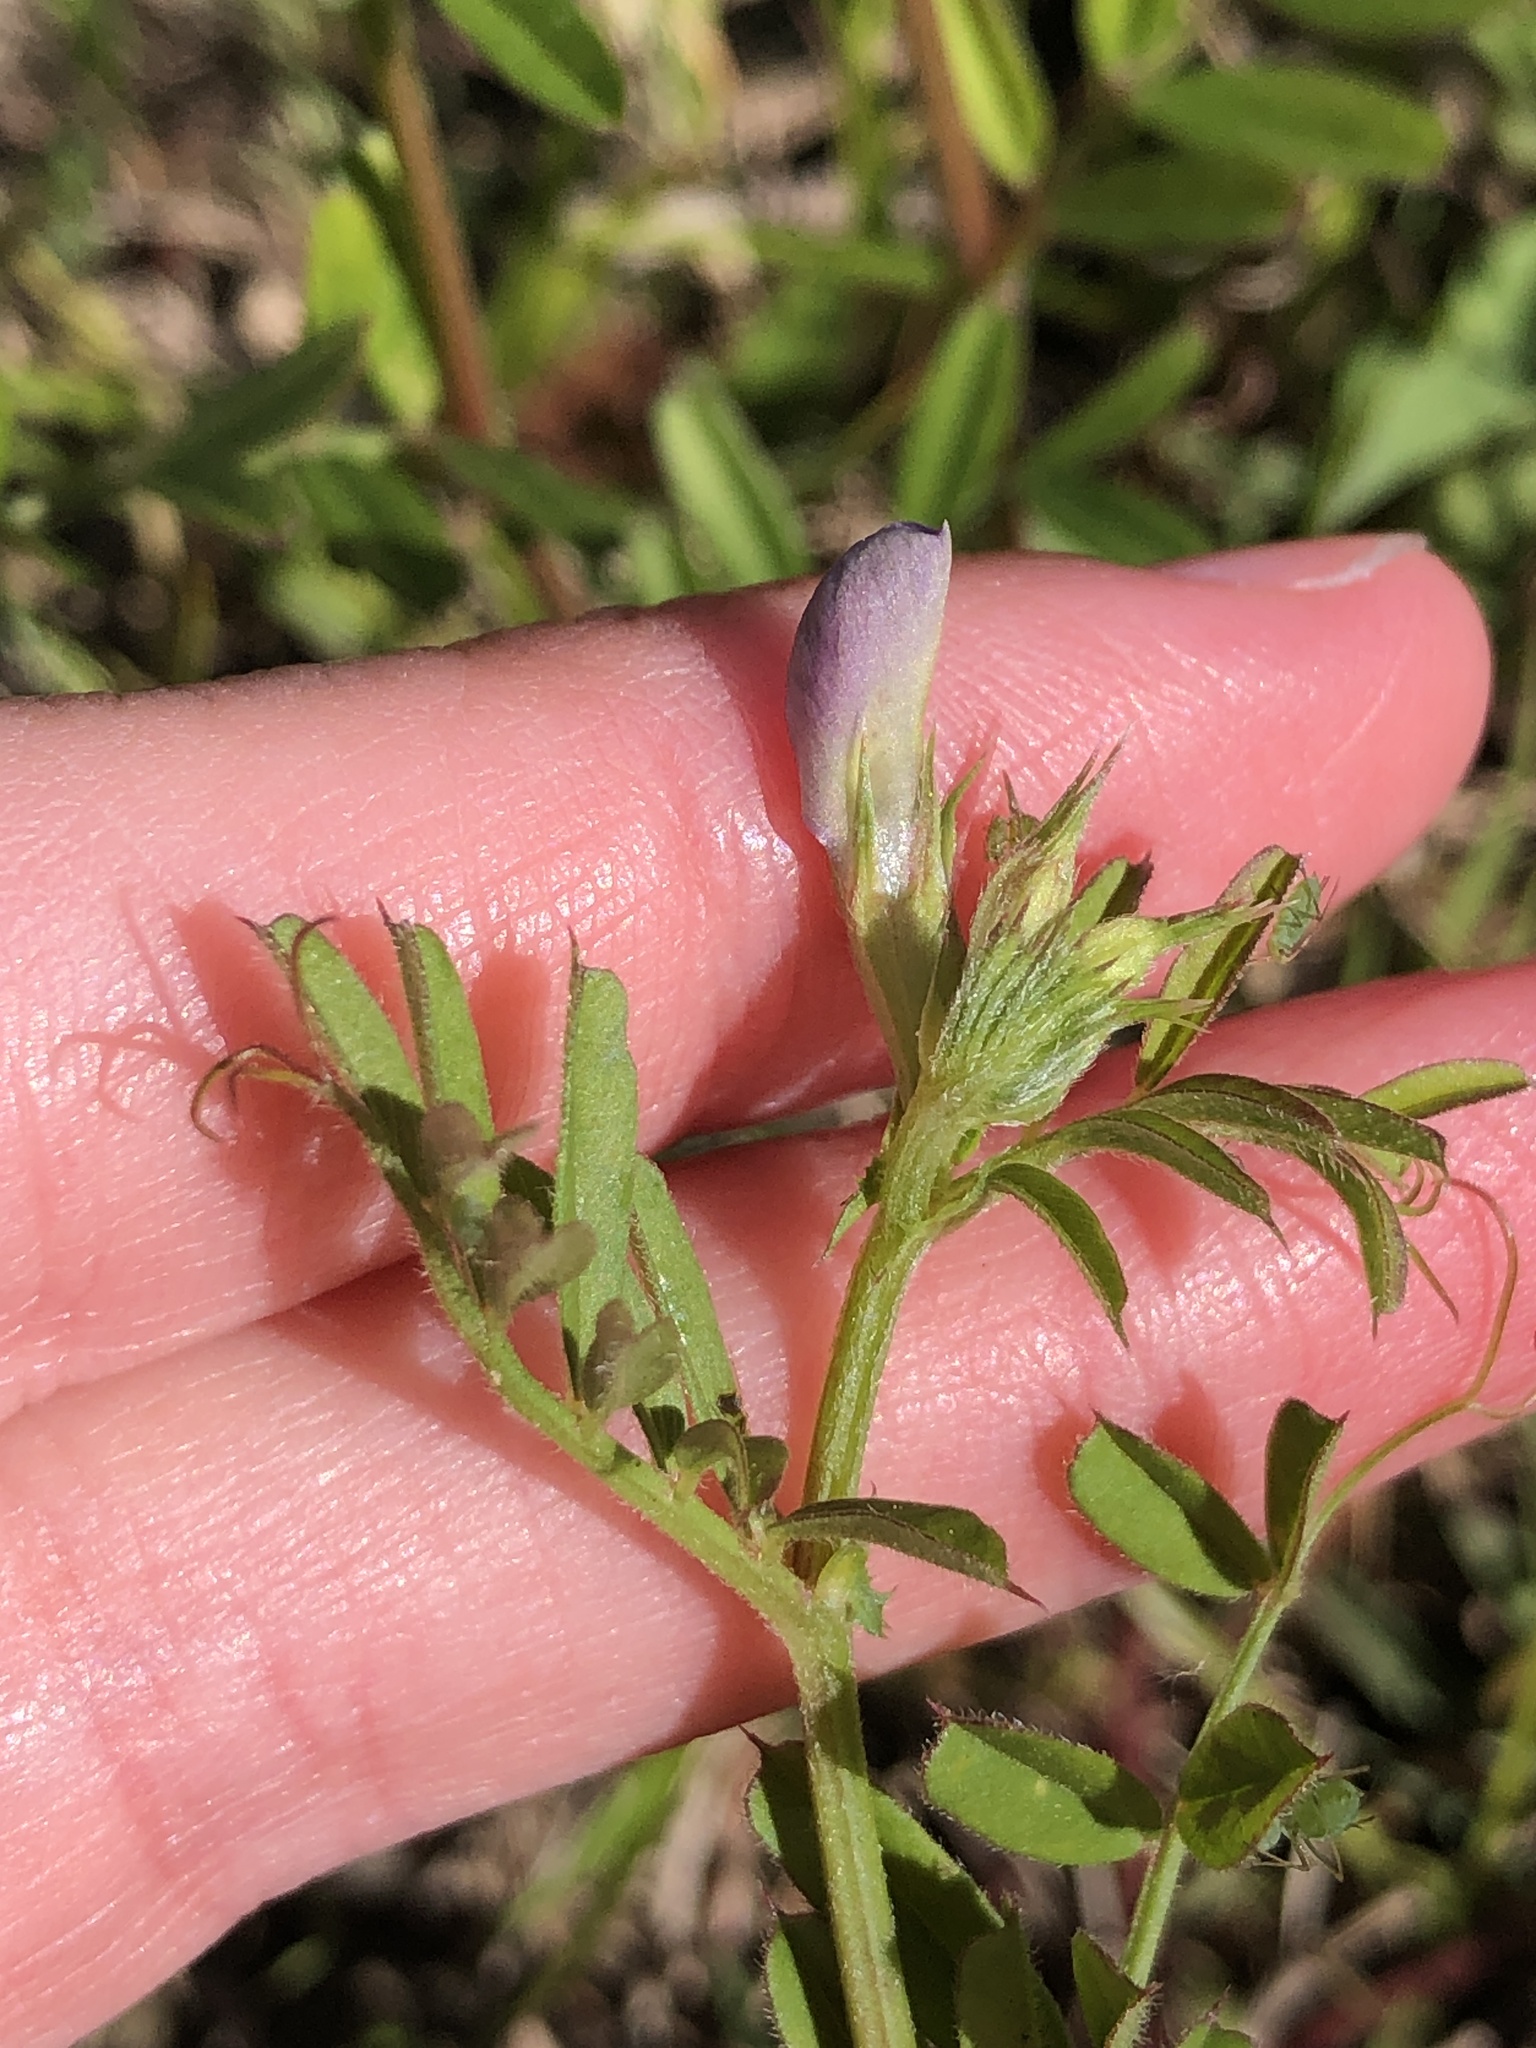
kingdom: Plantae
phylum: Tracheophyta
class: Magnoliopsida
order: Fabales
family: Fabaceae
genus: Vicia
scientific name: Vicia sativa
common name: Garden vetch
